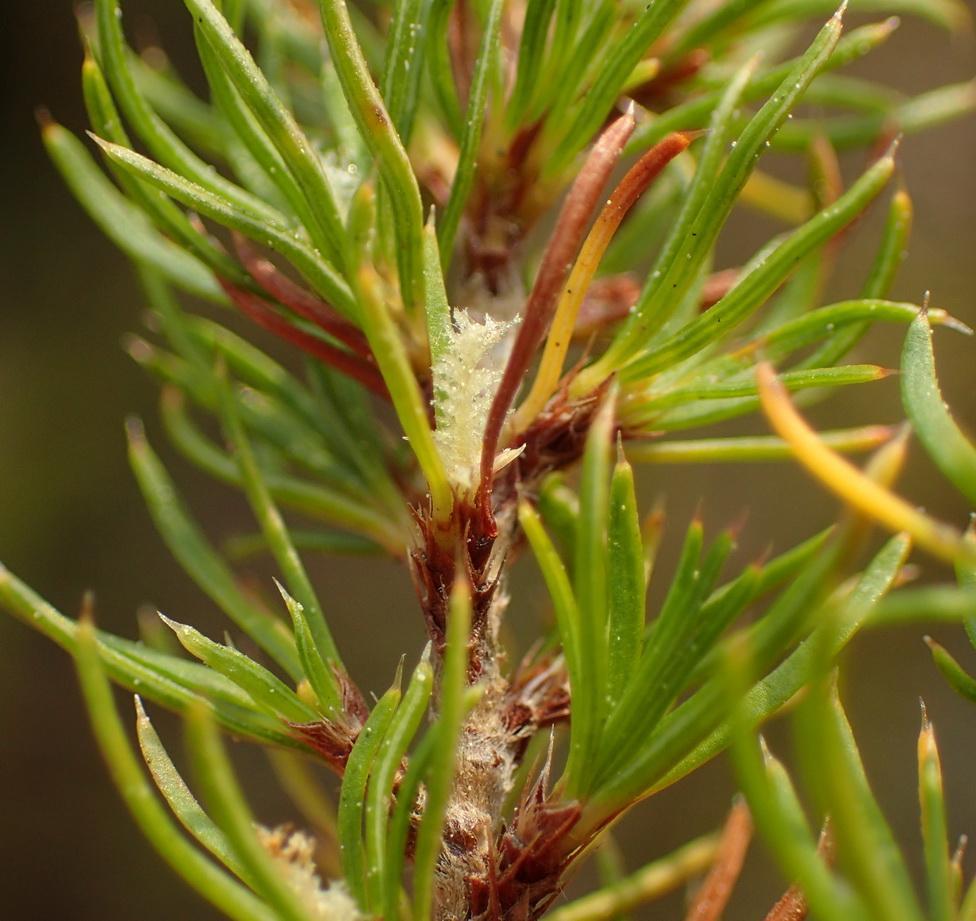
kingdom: Plantae
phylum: Tracheophyta
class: Magnoliopsida
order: Rosales
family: Rosaceae
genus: Cliffortia
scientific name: Cliffortia paucistaminea
